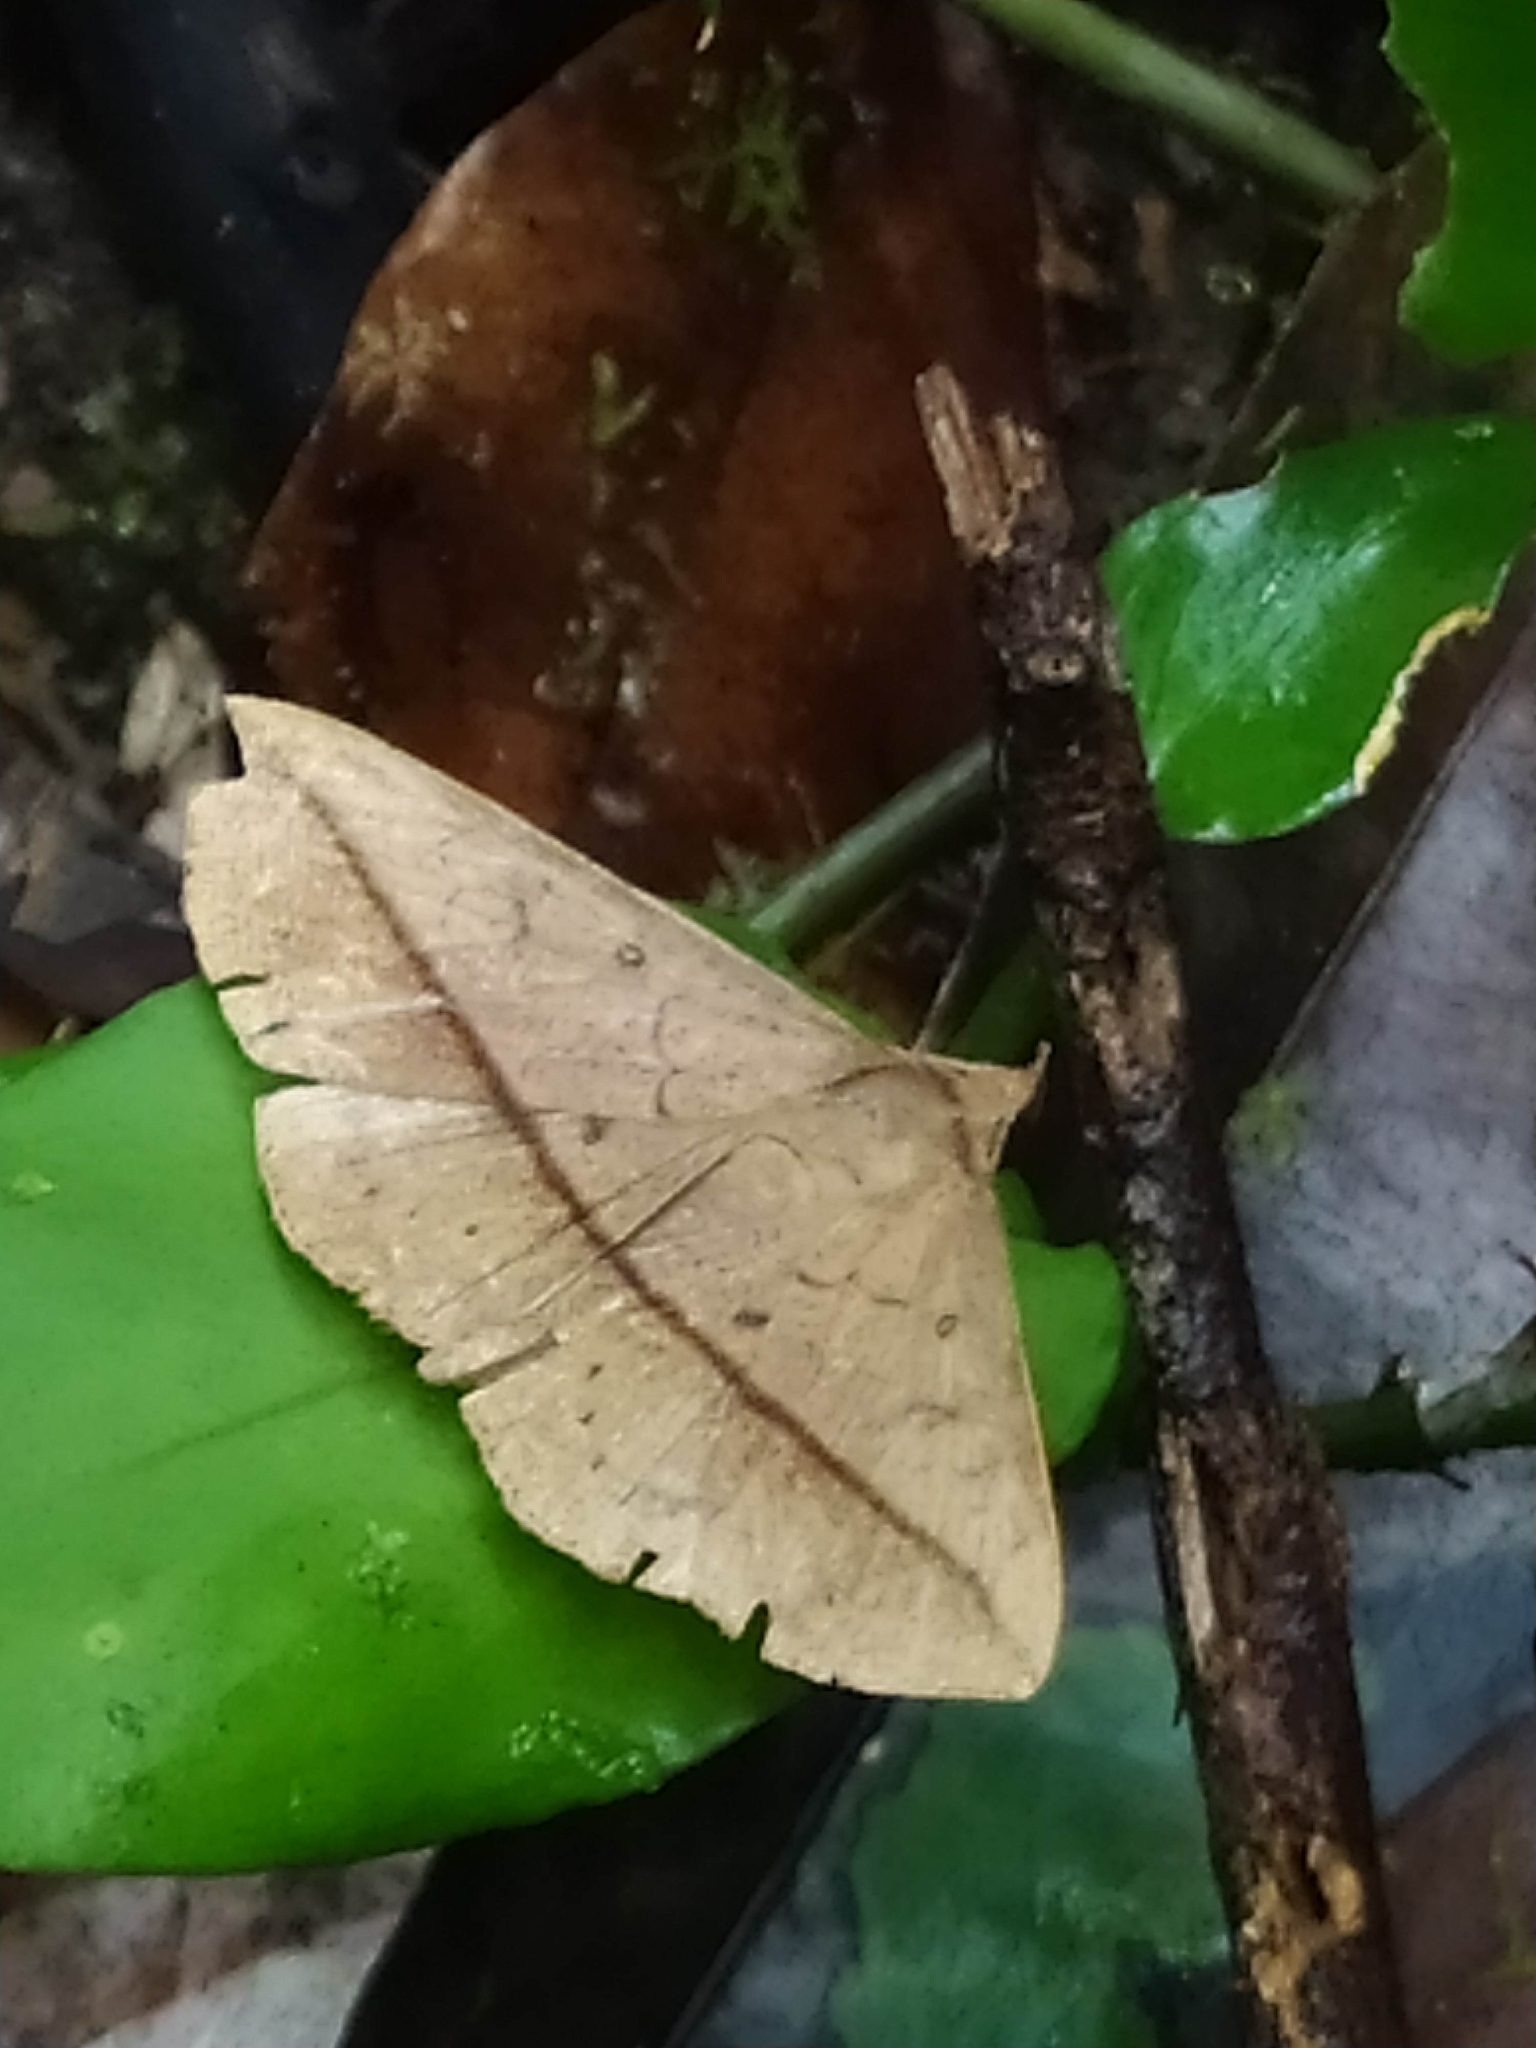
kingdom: Animalia
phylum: Arthropoda
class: Insecta
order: Lepidoptera
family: Erebidae
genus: Epitausa
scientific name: Epitausa rubripuncta
